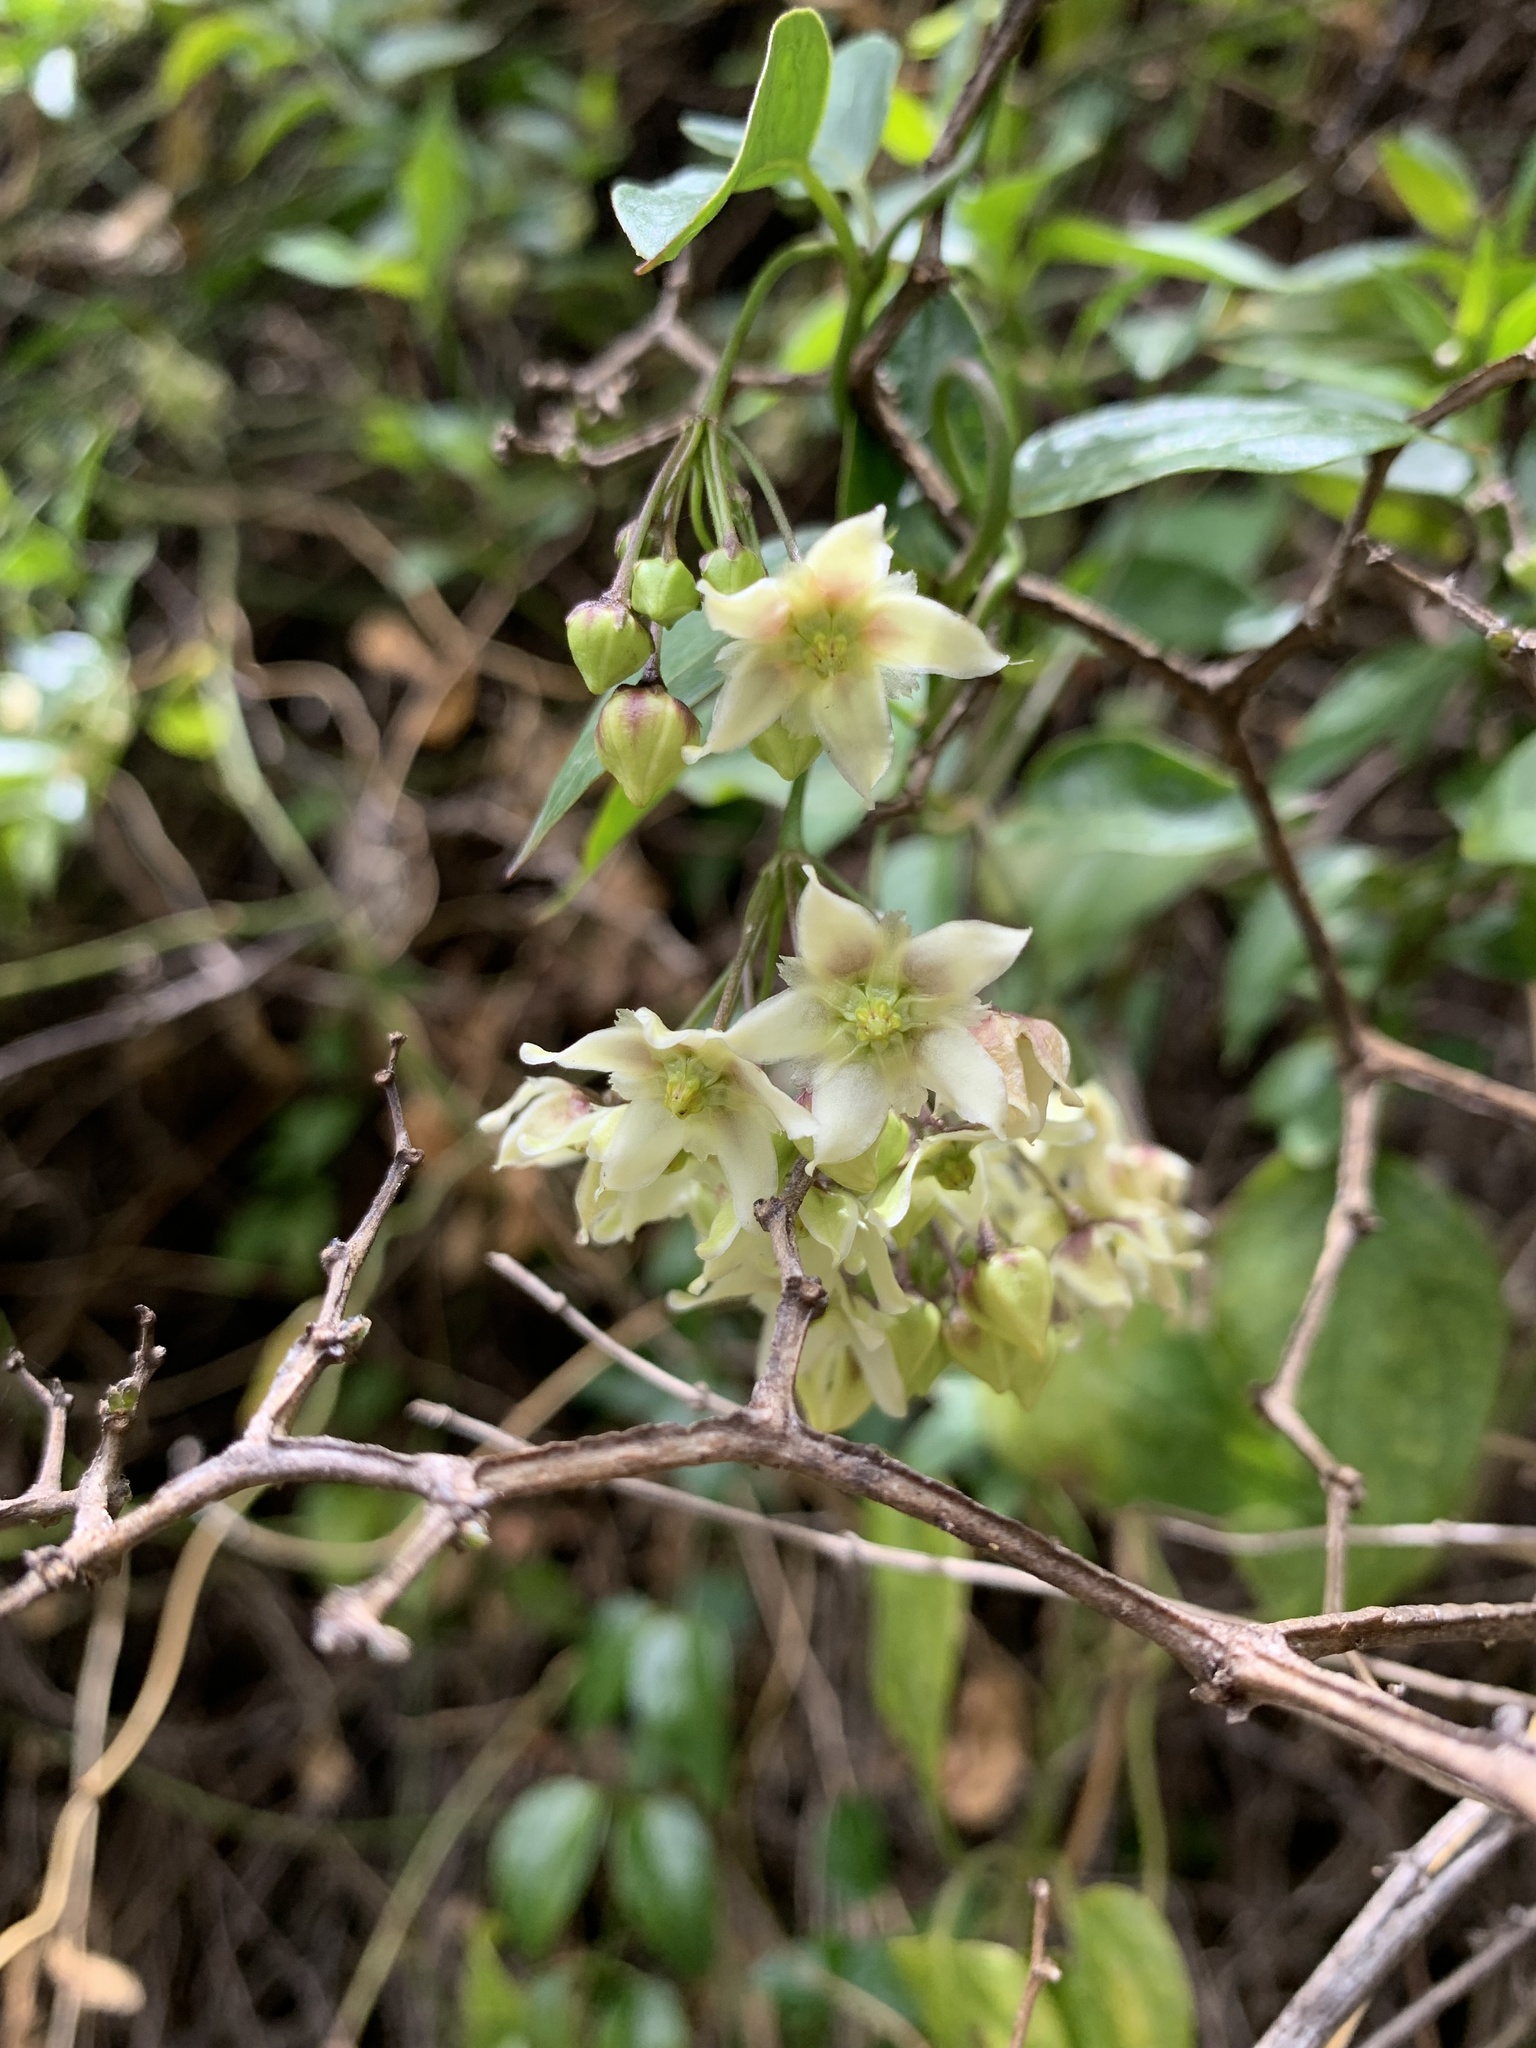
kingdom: Plantae
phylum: Tracheophyta
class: Magnoliopsida
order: Gentianales
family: Apocynaceae
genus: Jobinia
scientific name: Jobinia tarmensis
